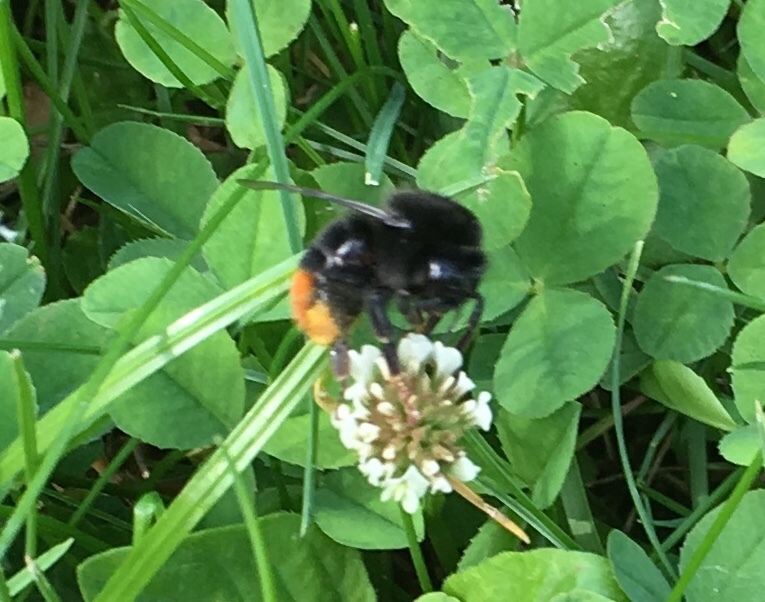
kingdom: Animalia
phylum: Arthropoda
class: Insecta
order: Hymenoptera
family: Apidae
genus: Bombus
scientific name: Bombus lapidarius
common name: Large red-tailed humble-bee
